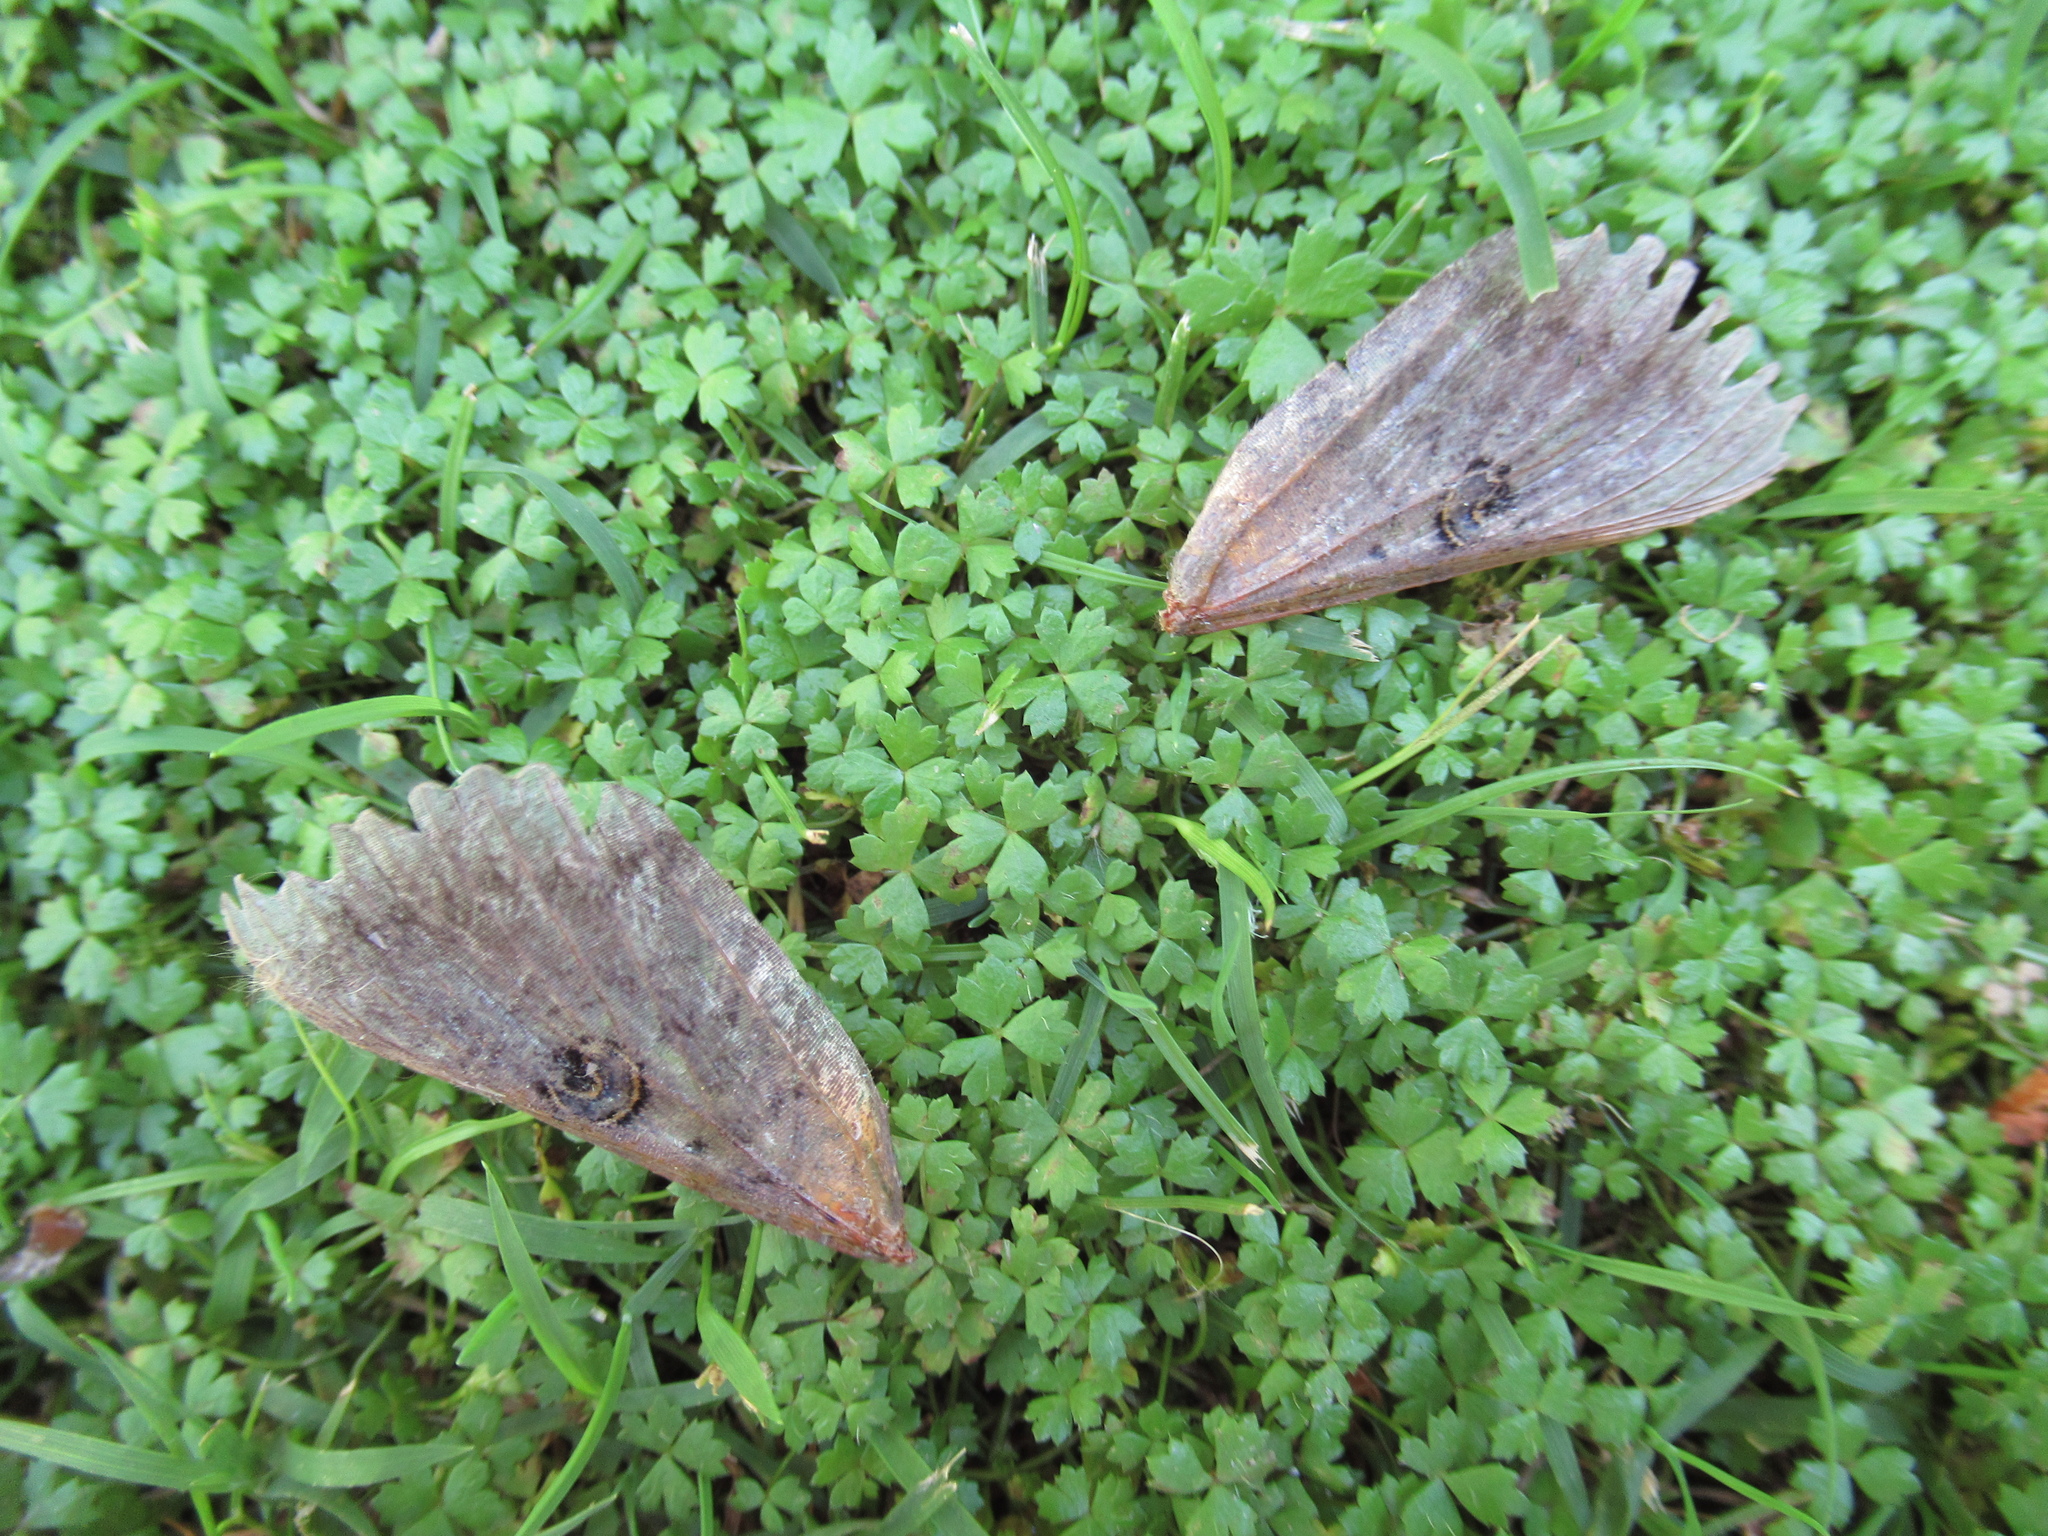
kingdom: Animalia
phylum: Arthropoda
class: Insecta
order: Lepidoptera
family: Erebidae
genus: Dasypodia
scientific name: Dasypodia cymatodes
